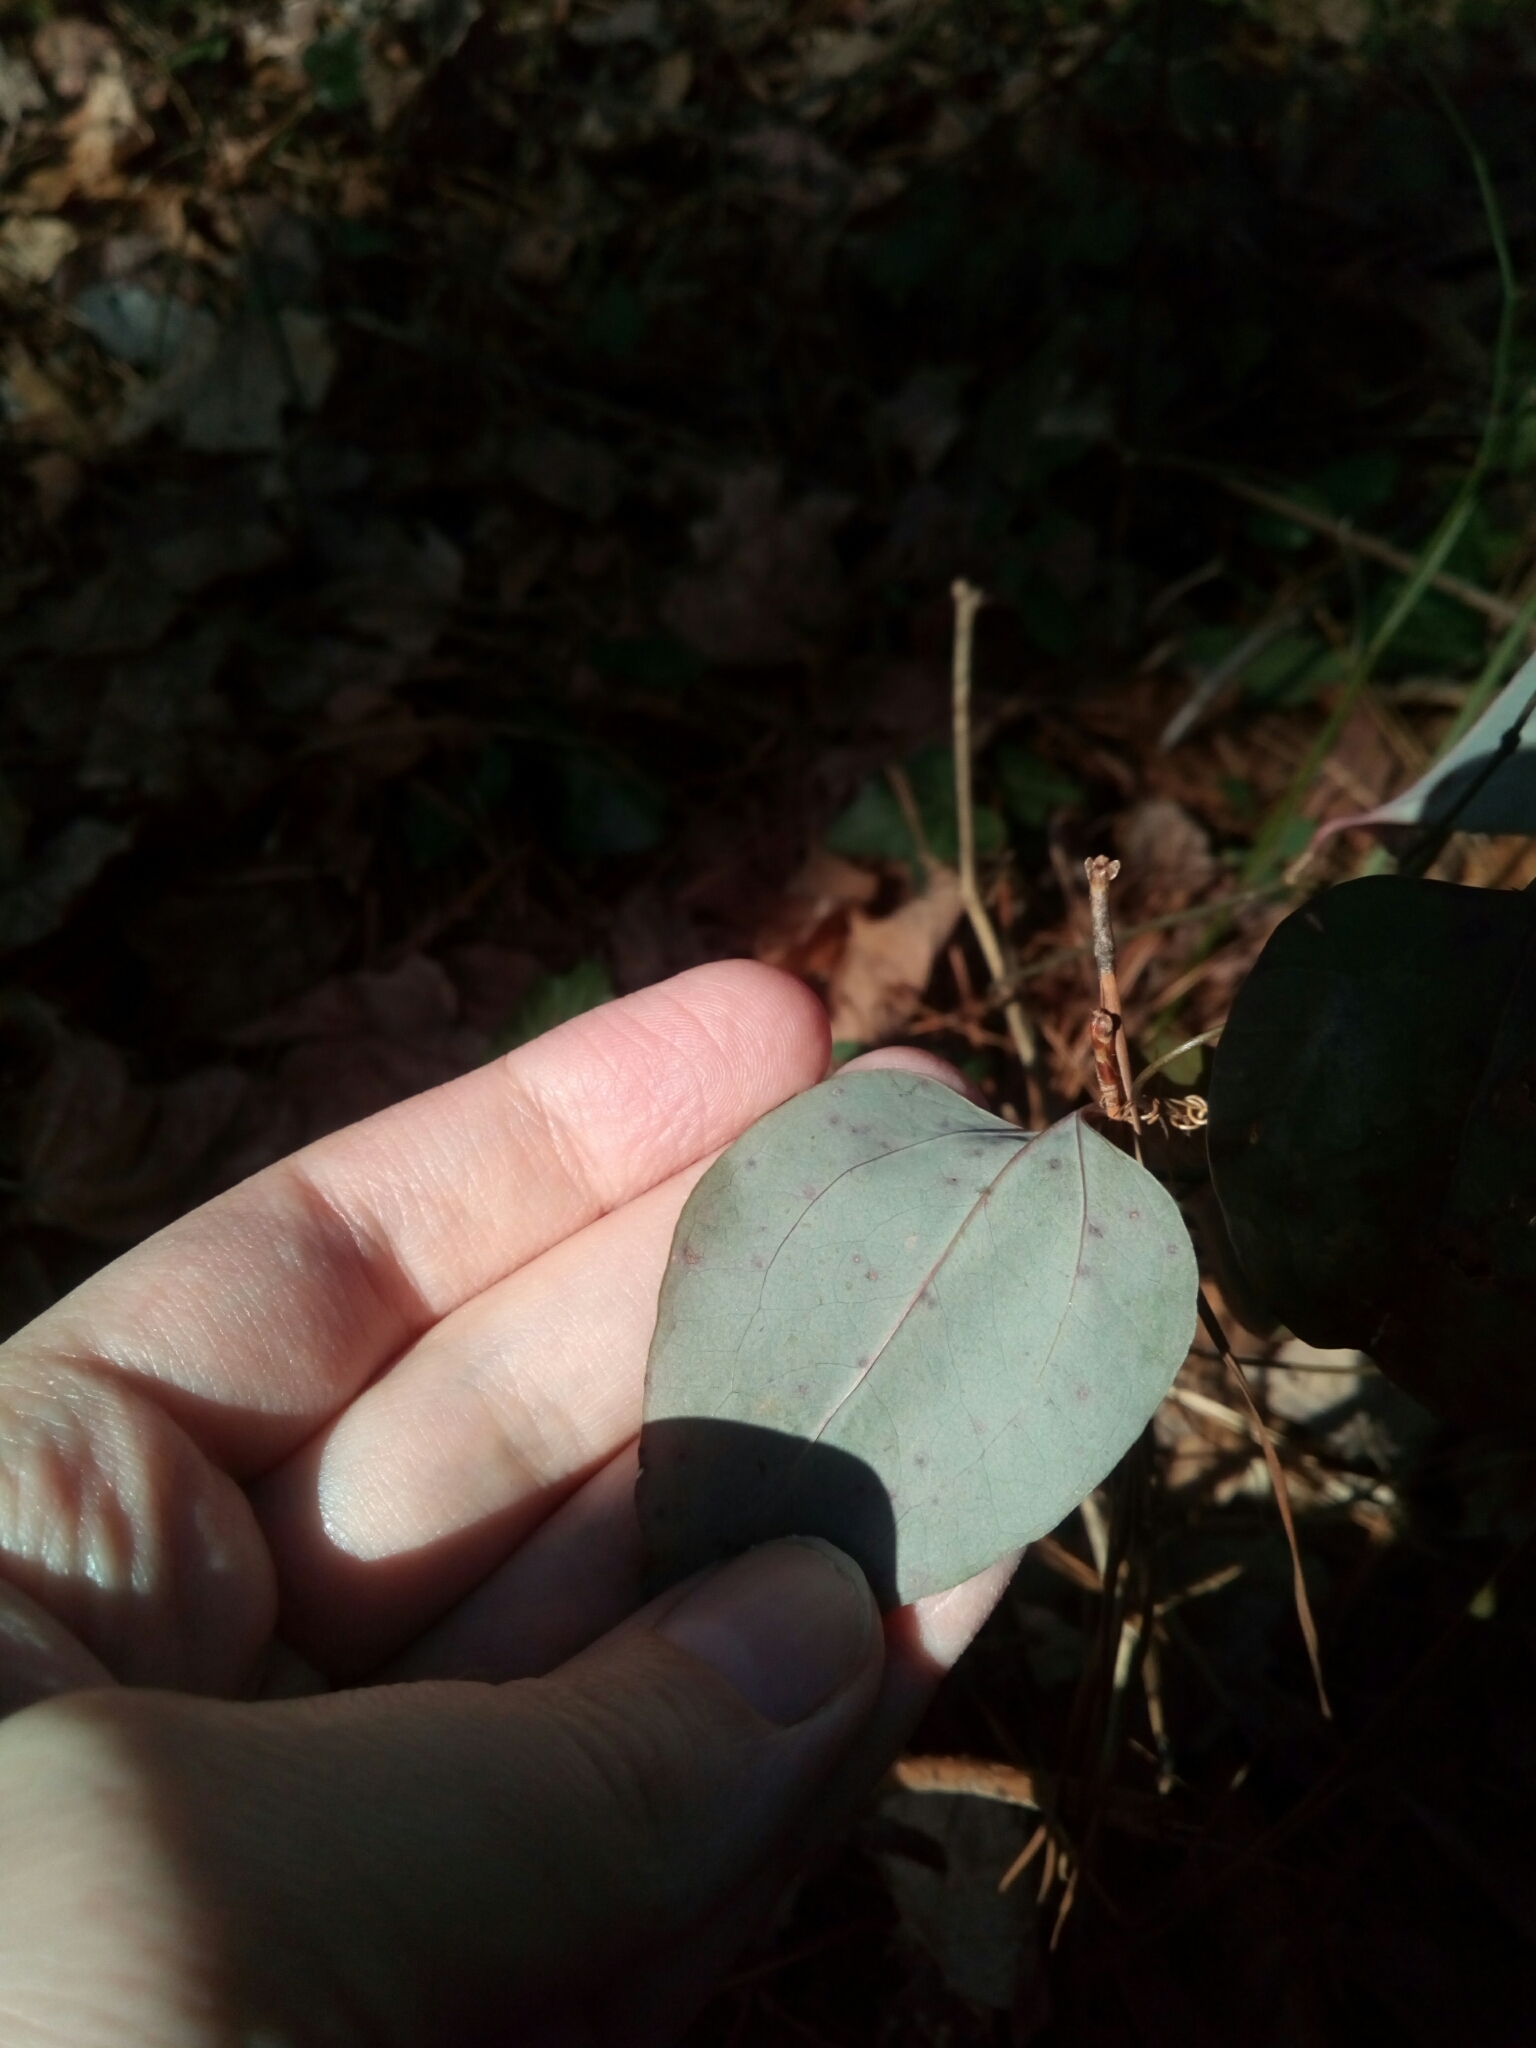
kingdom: Plantae
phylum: Tracheophyta
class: Liliopsida
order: Liliales
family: Smilacaceae
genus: Smilax
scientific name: Smilax glauca
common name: Cat greenbrier
